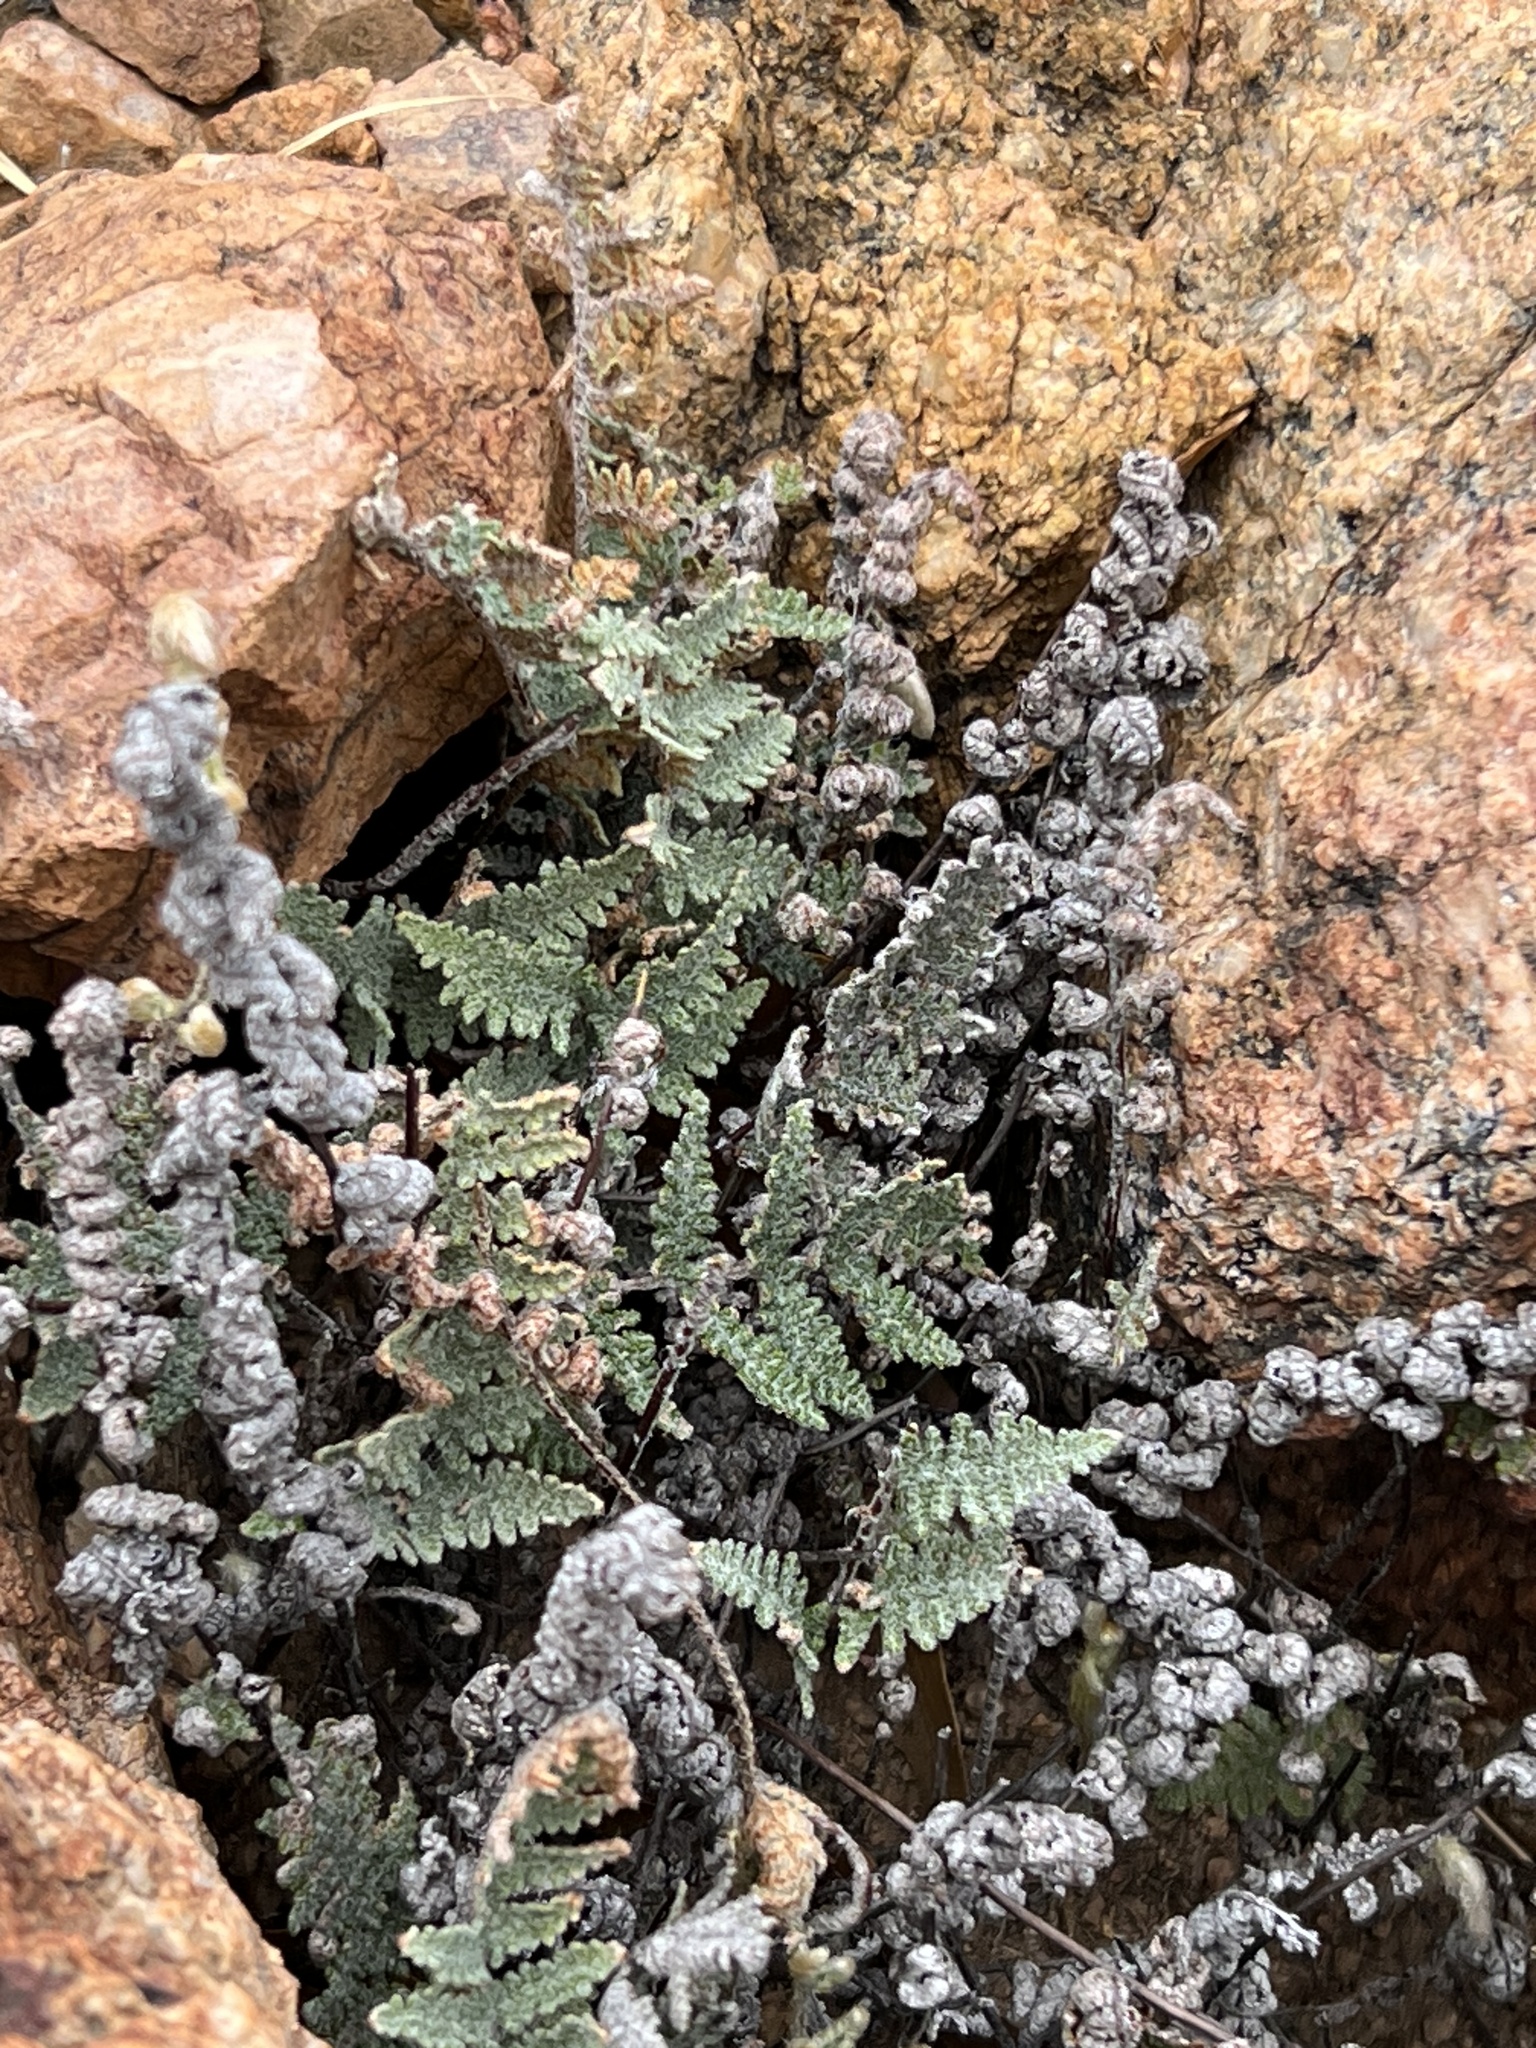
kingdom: Plantae
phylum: Tracheophyta
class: Polypodiopsida
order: Polypodiales
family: Pteridaceae
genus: Myriopteris
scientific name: Myriopteris lindheimeri
